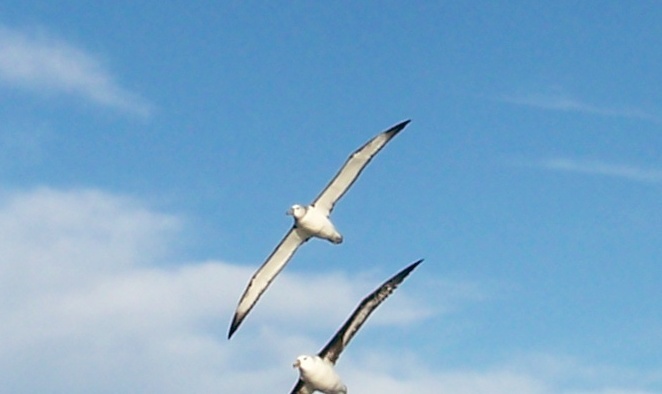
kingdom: Animalia
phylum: Chordata
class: Aves
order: Procellariiformes
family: Diomedeidae
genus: Thalassarche
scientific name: Thalassarche cauta
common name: Shy albatross
